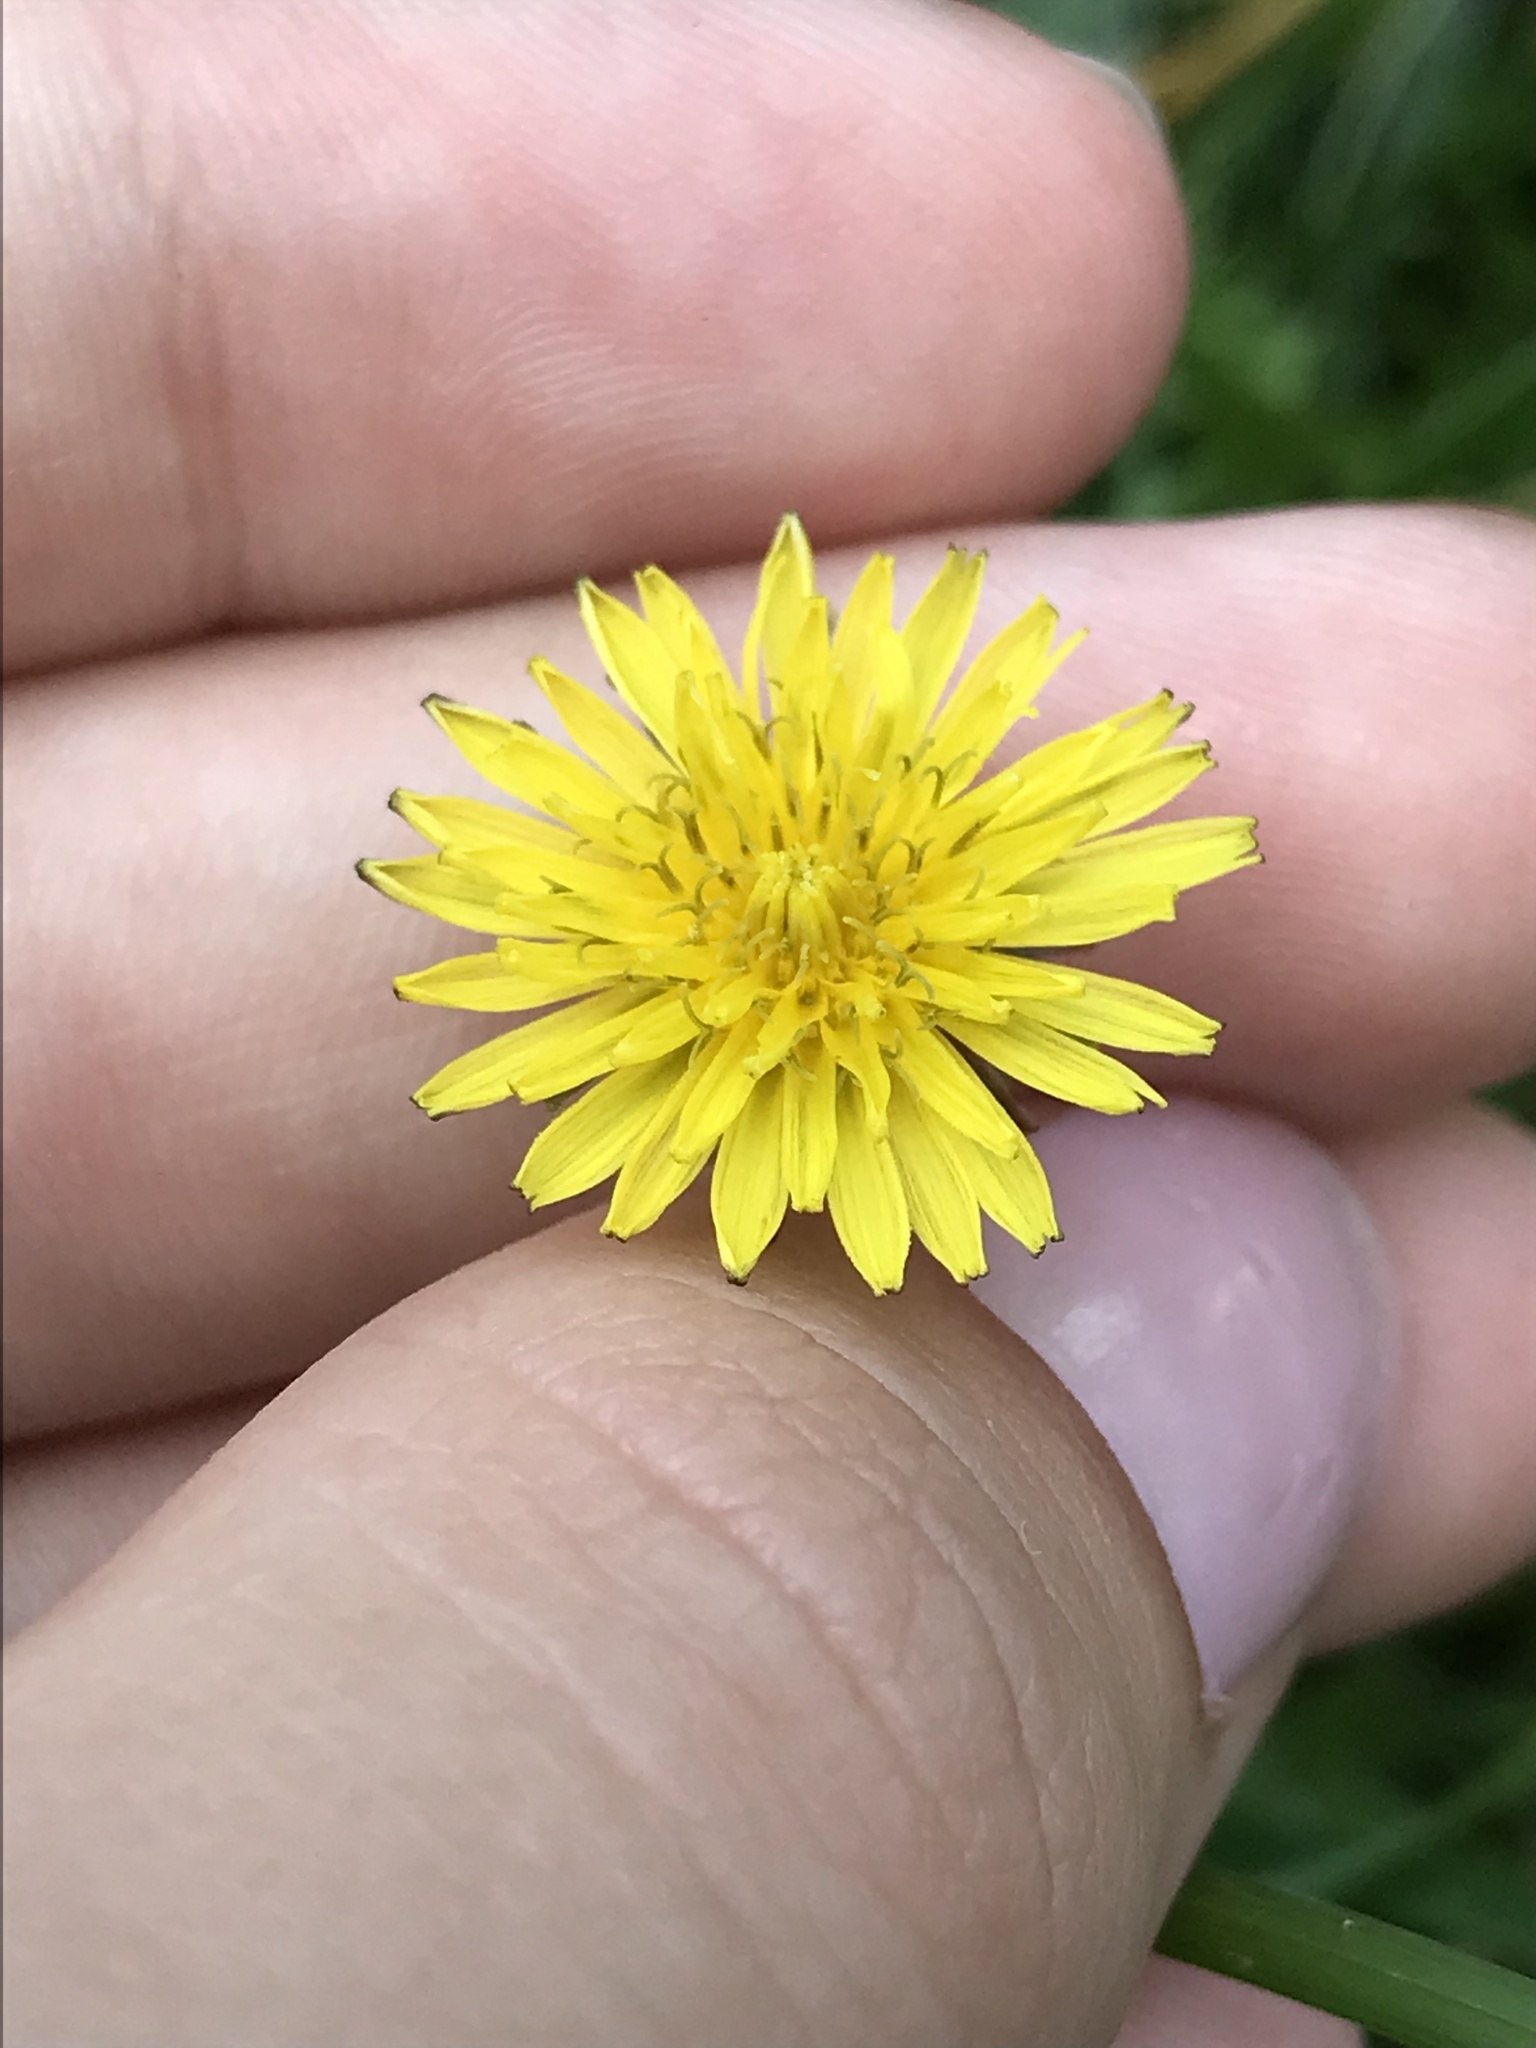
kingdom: Plantae
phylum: Tracheophyta
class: Magnoliopsida
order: Asterales
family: Asteraceae
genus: Taraxacum
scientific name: Taraxacum officinale
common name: Common dandelion
